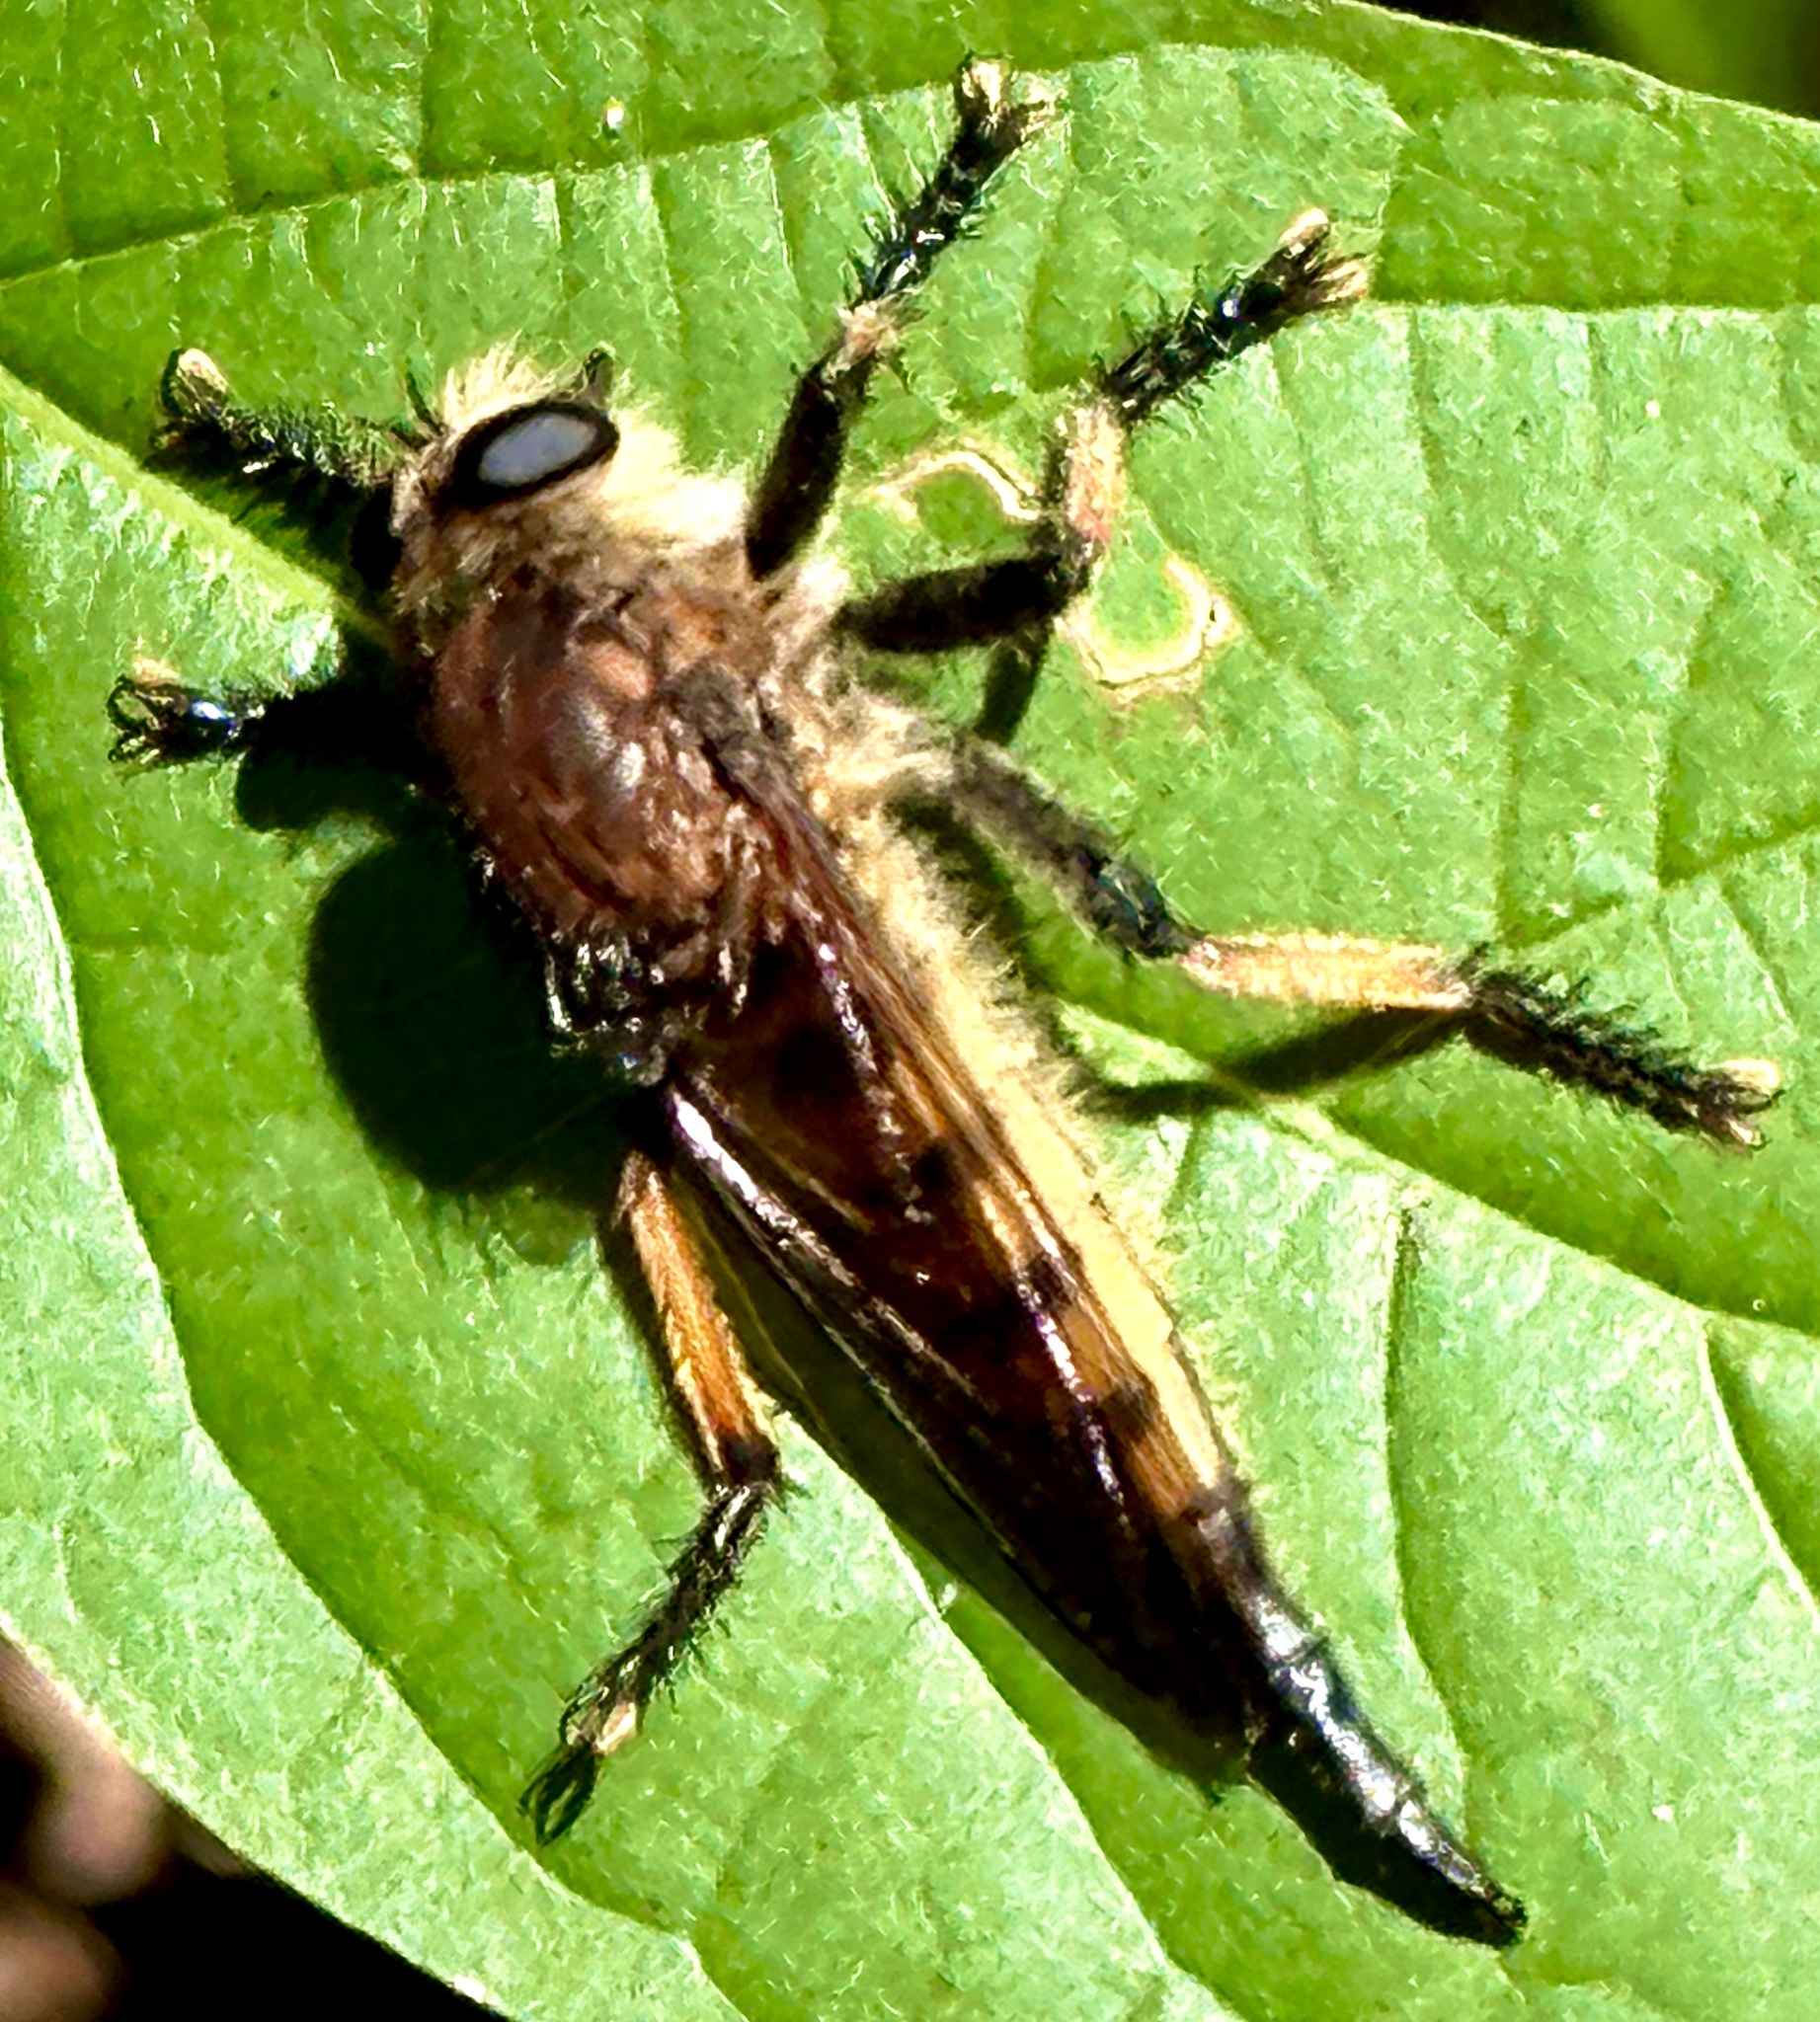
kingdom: Animalia
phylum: Arthropoda
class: Insecta
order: Diptera
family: Asilidae
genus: Promachus
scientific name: Promachus rufipes
